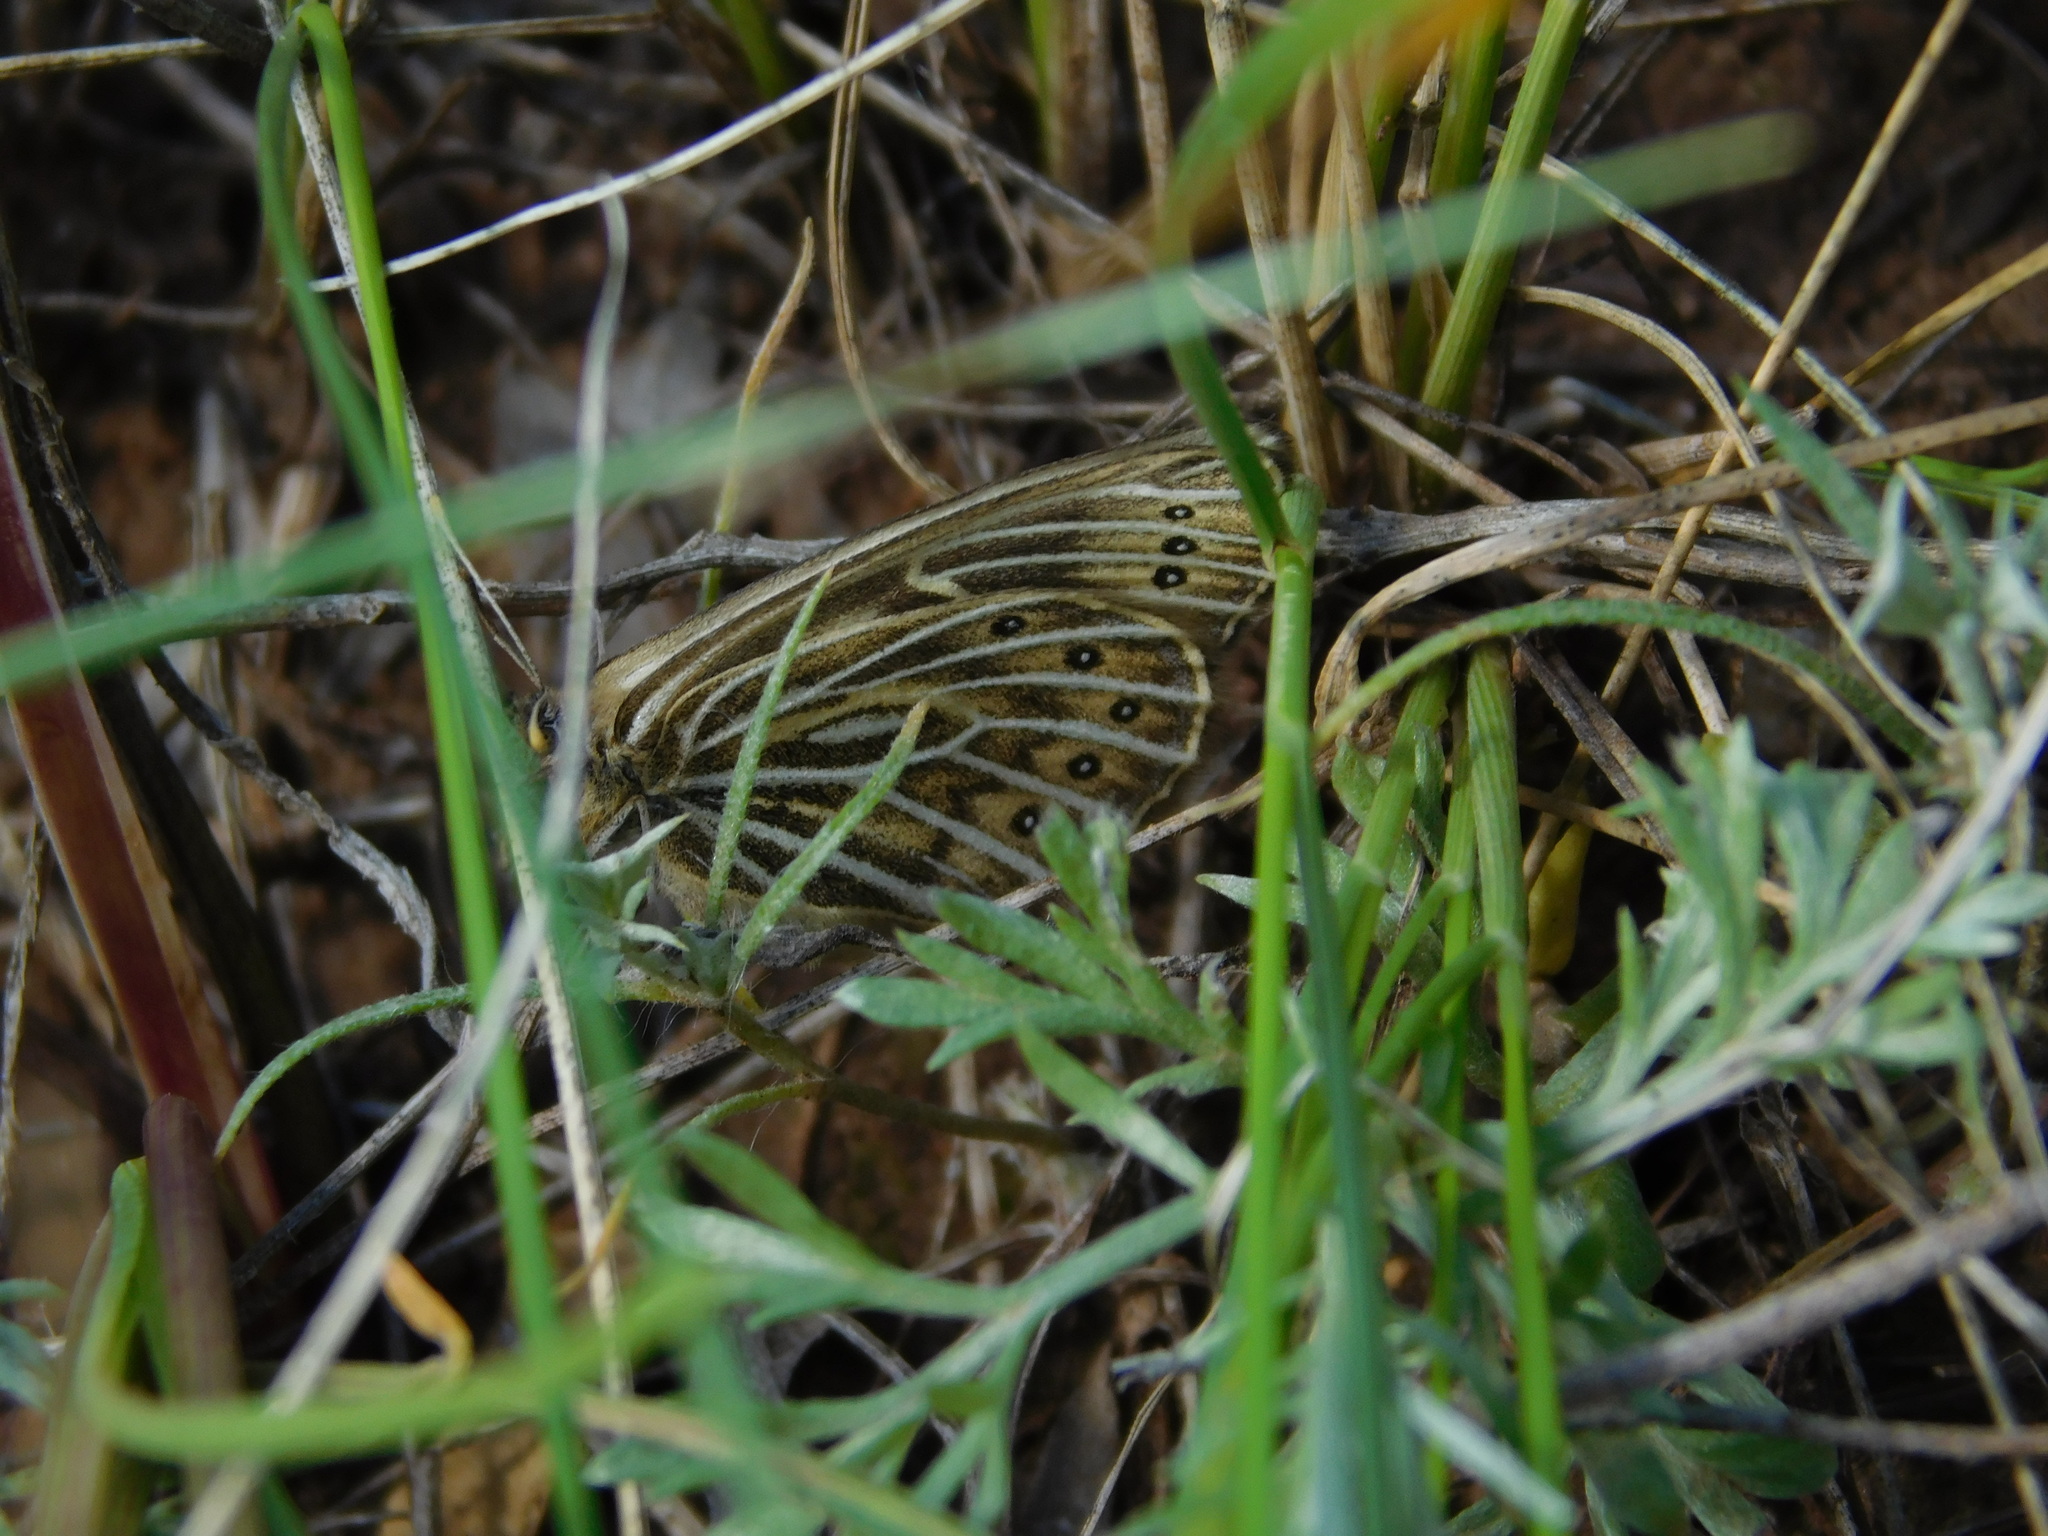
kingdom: Animalia
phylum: Arthropoda
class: Insecta
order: Lepidoptera
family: Nymphalidae
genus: Triphysa
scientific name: Triphysa phryne
